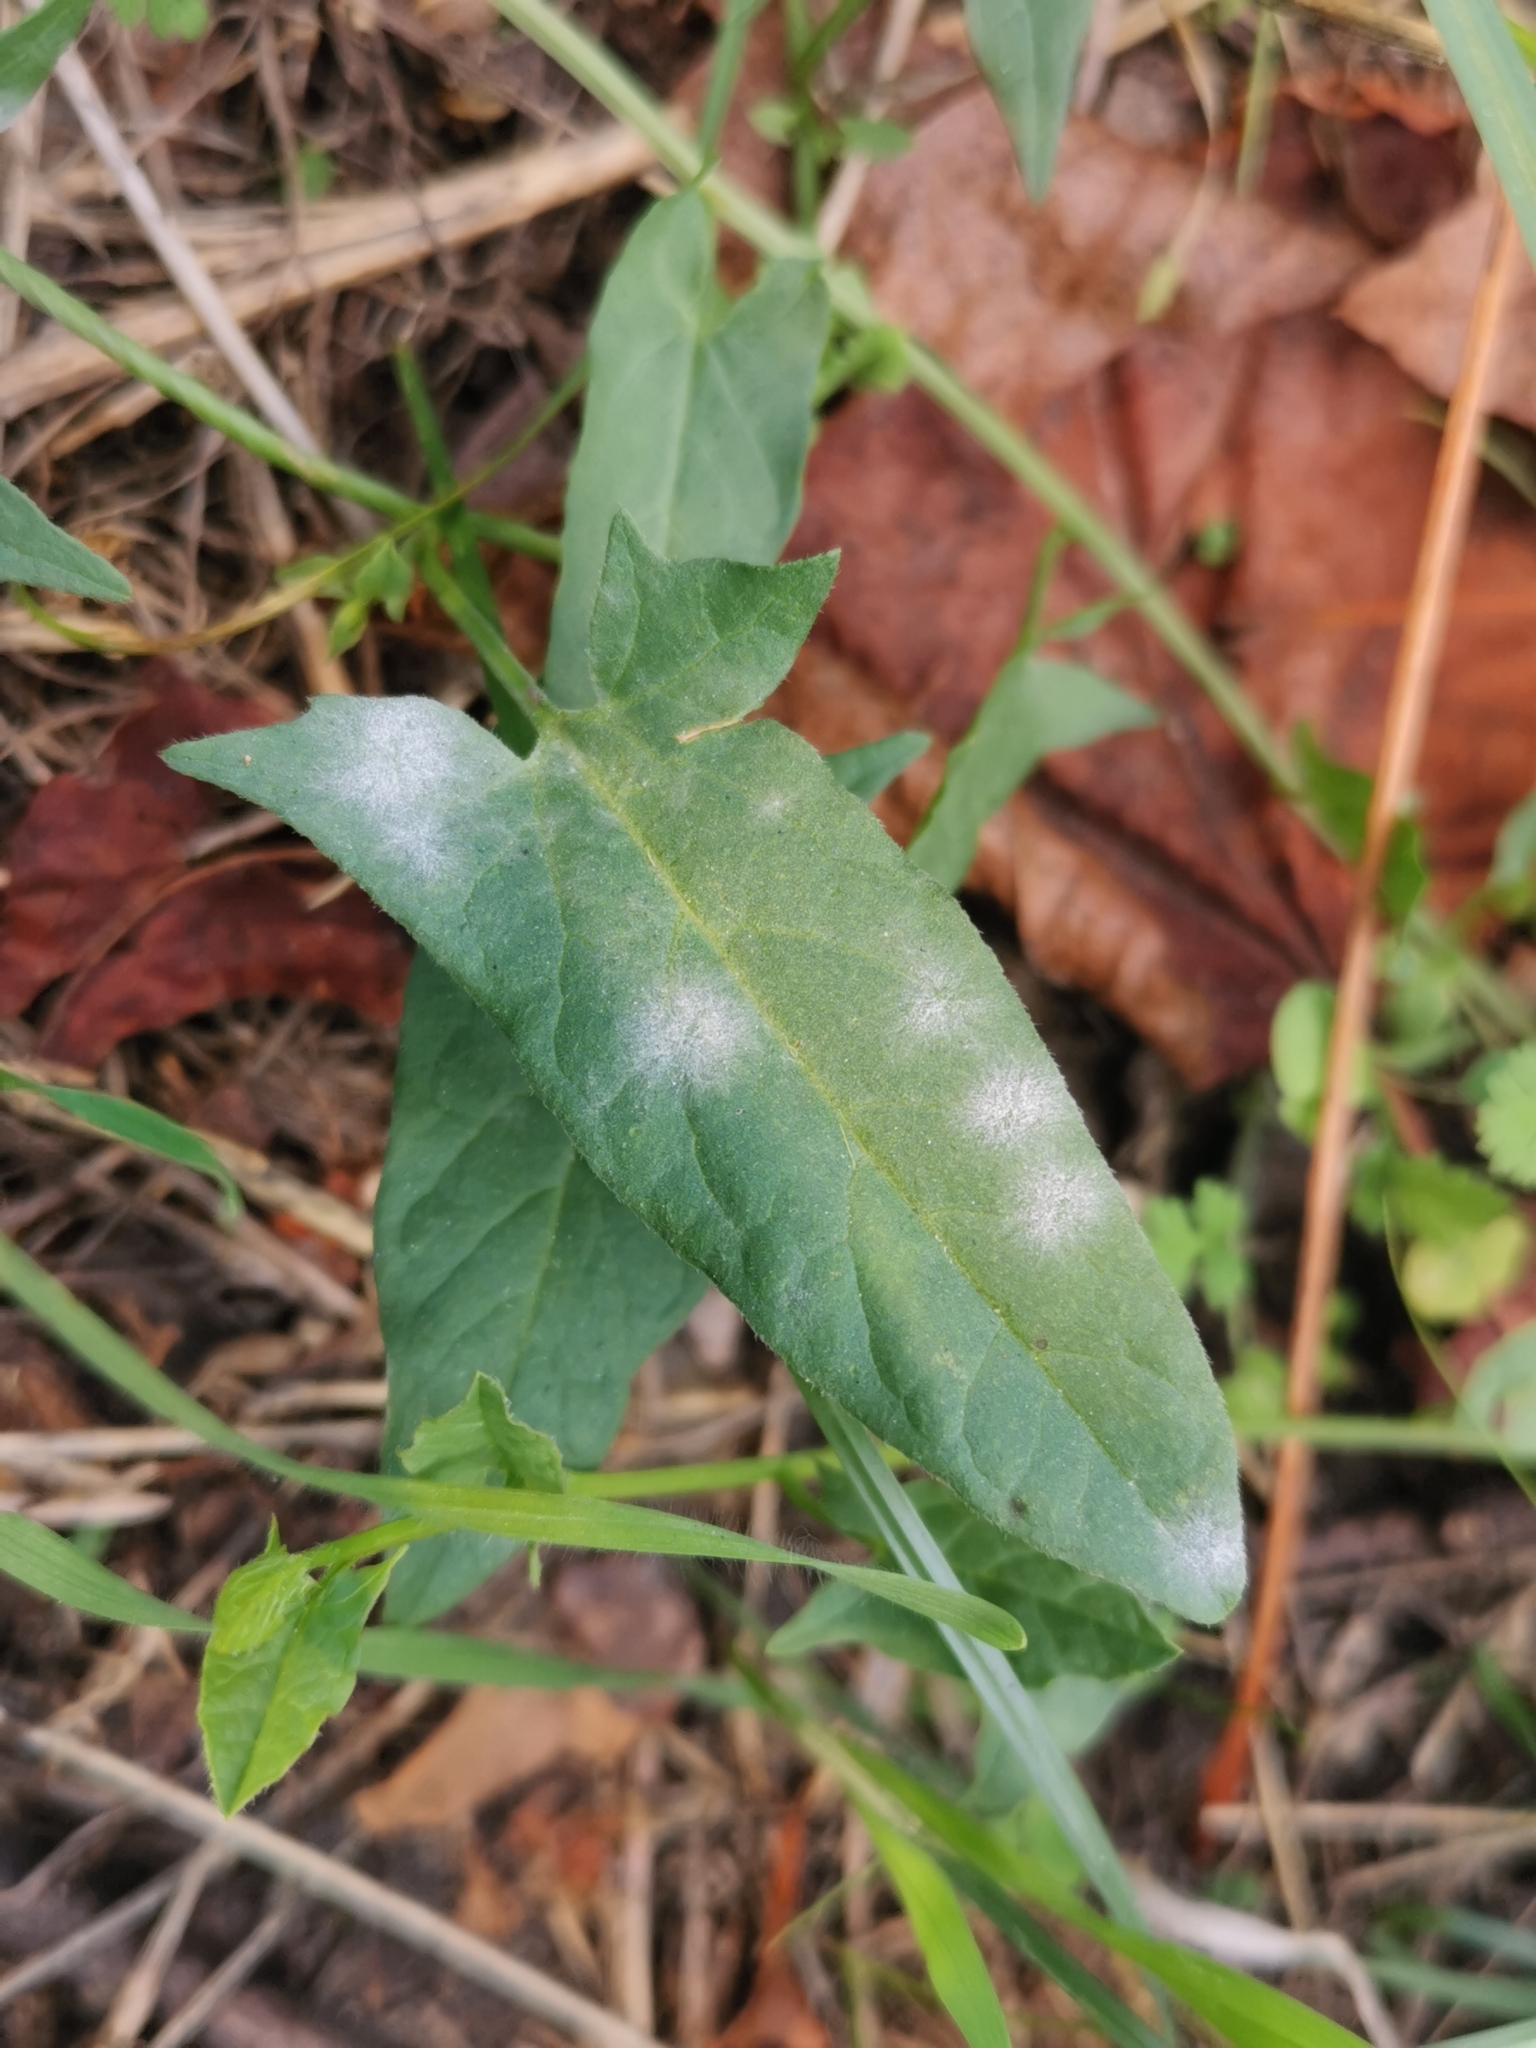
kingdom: Fungi
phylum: Ascomycota
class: Leotiomycetes
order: Helotiales
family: Erysiphaceae
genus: Erysiphe
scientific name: Erysiphe convolvuli
